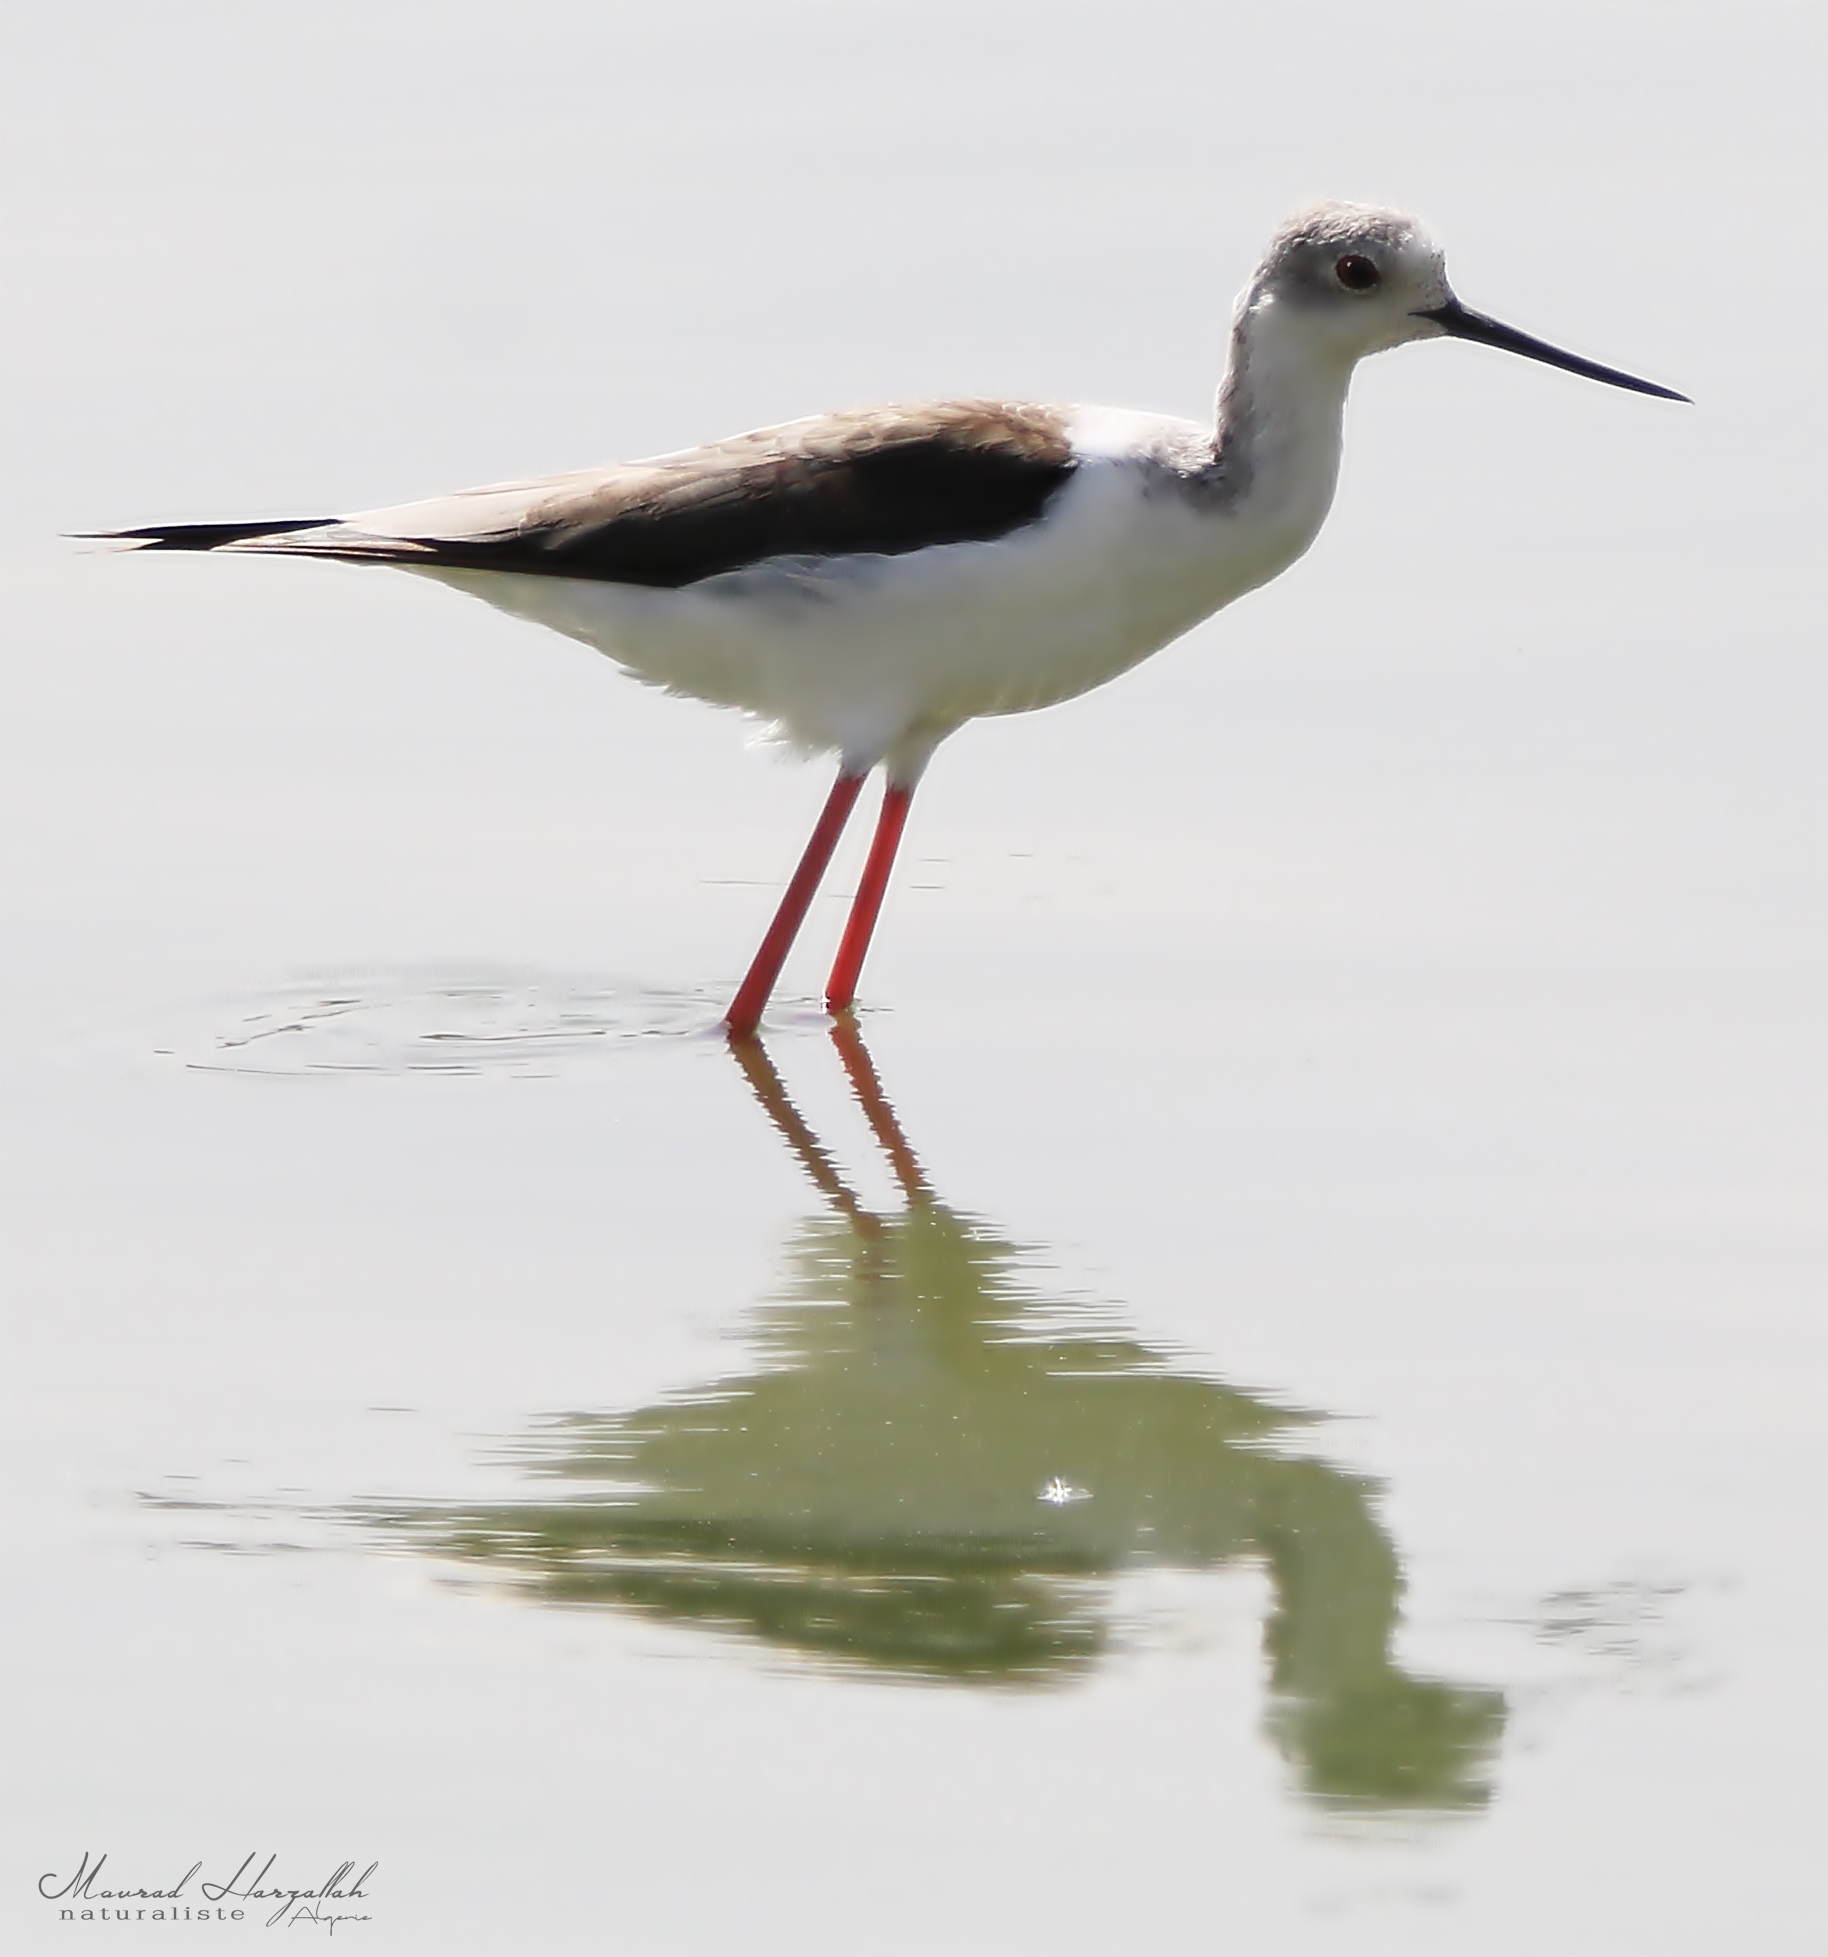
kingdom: Animalia
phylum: Chordata
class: Aves
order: Charadriiformes
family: Recurvirostridae
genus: Himantopus
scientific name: Himantopus himantopus
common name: Black-winged stilt
